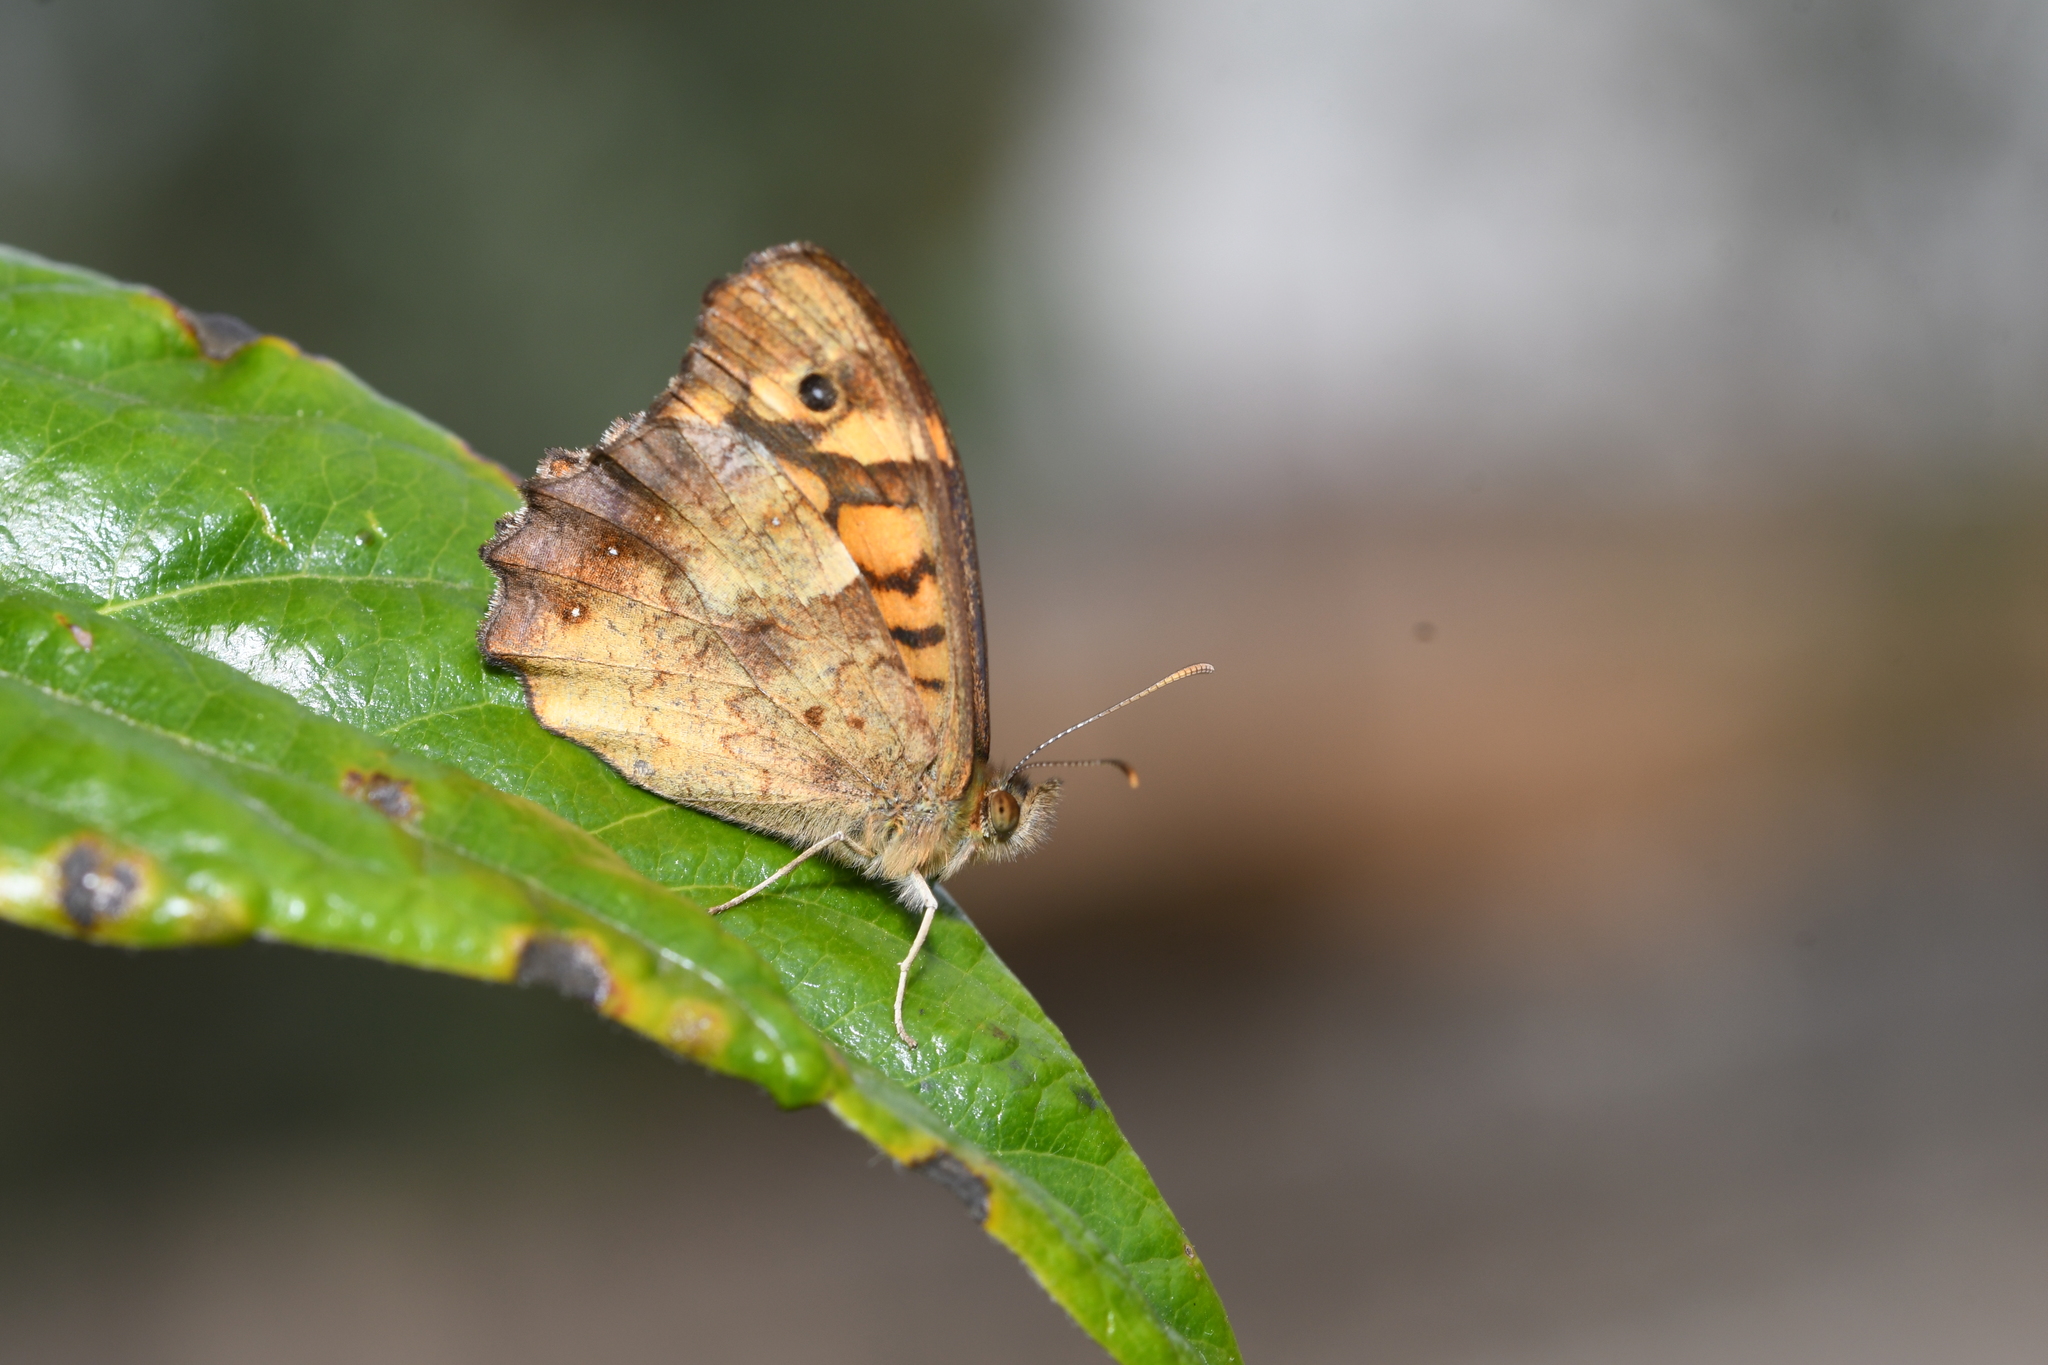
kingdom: Animalia
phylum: Arthropoda
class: Insecta
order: Lepidoptera
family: Nymphalidae
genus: Pararge
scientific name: Pararge aegeria
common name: Speckled wood
